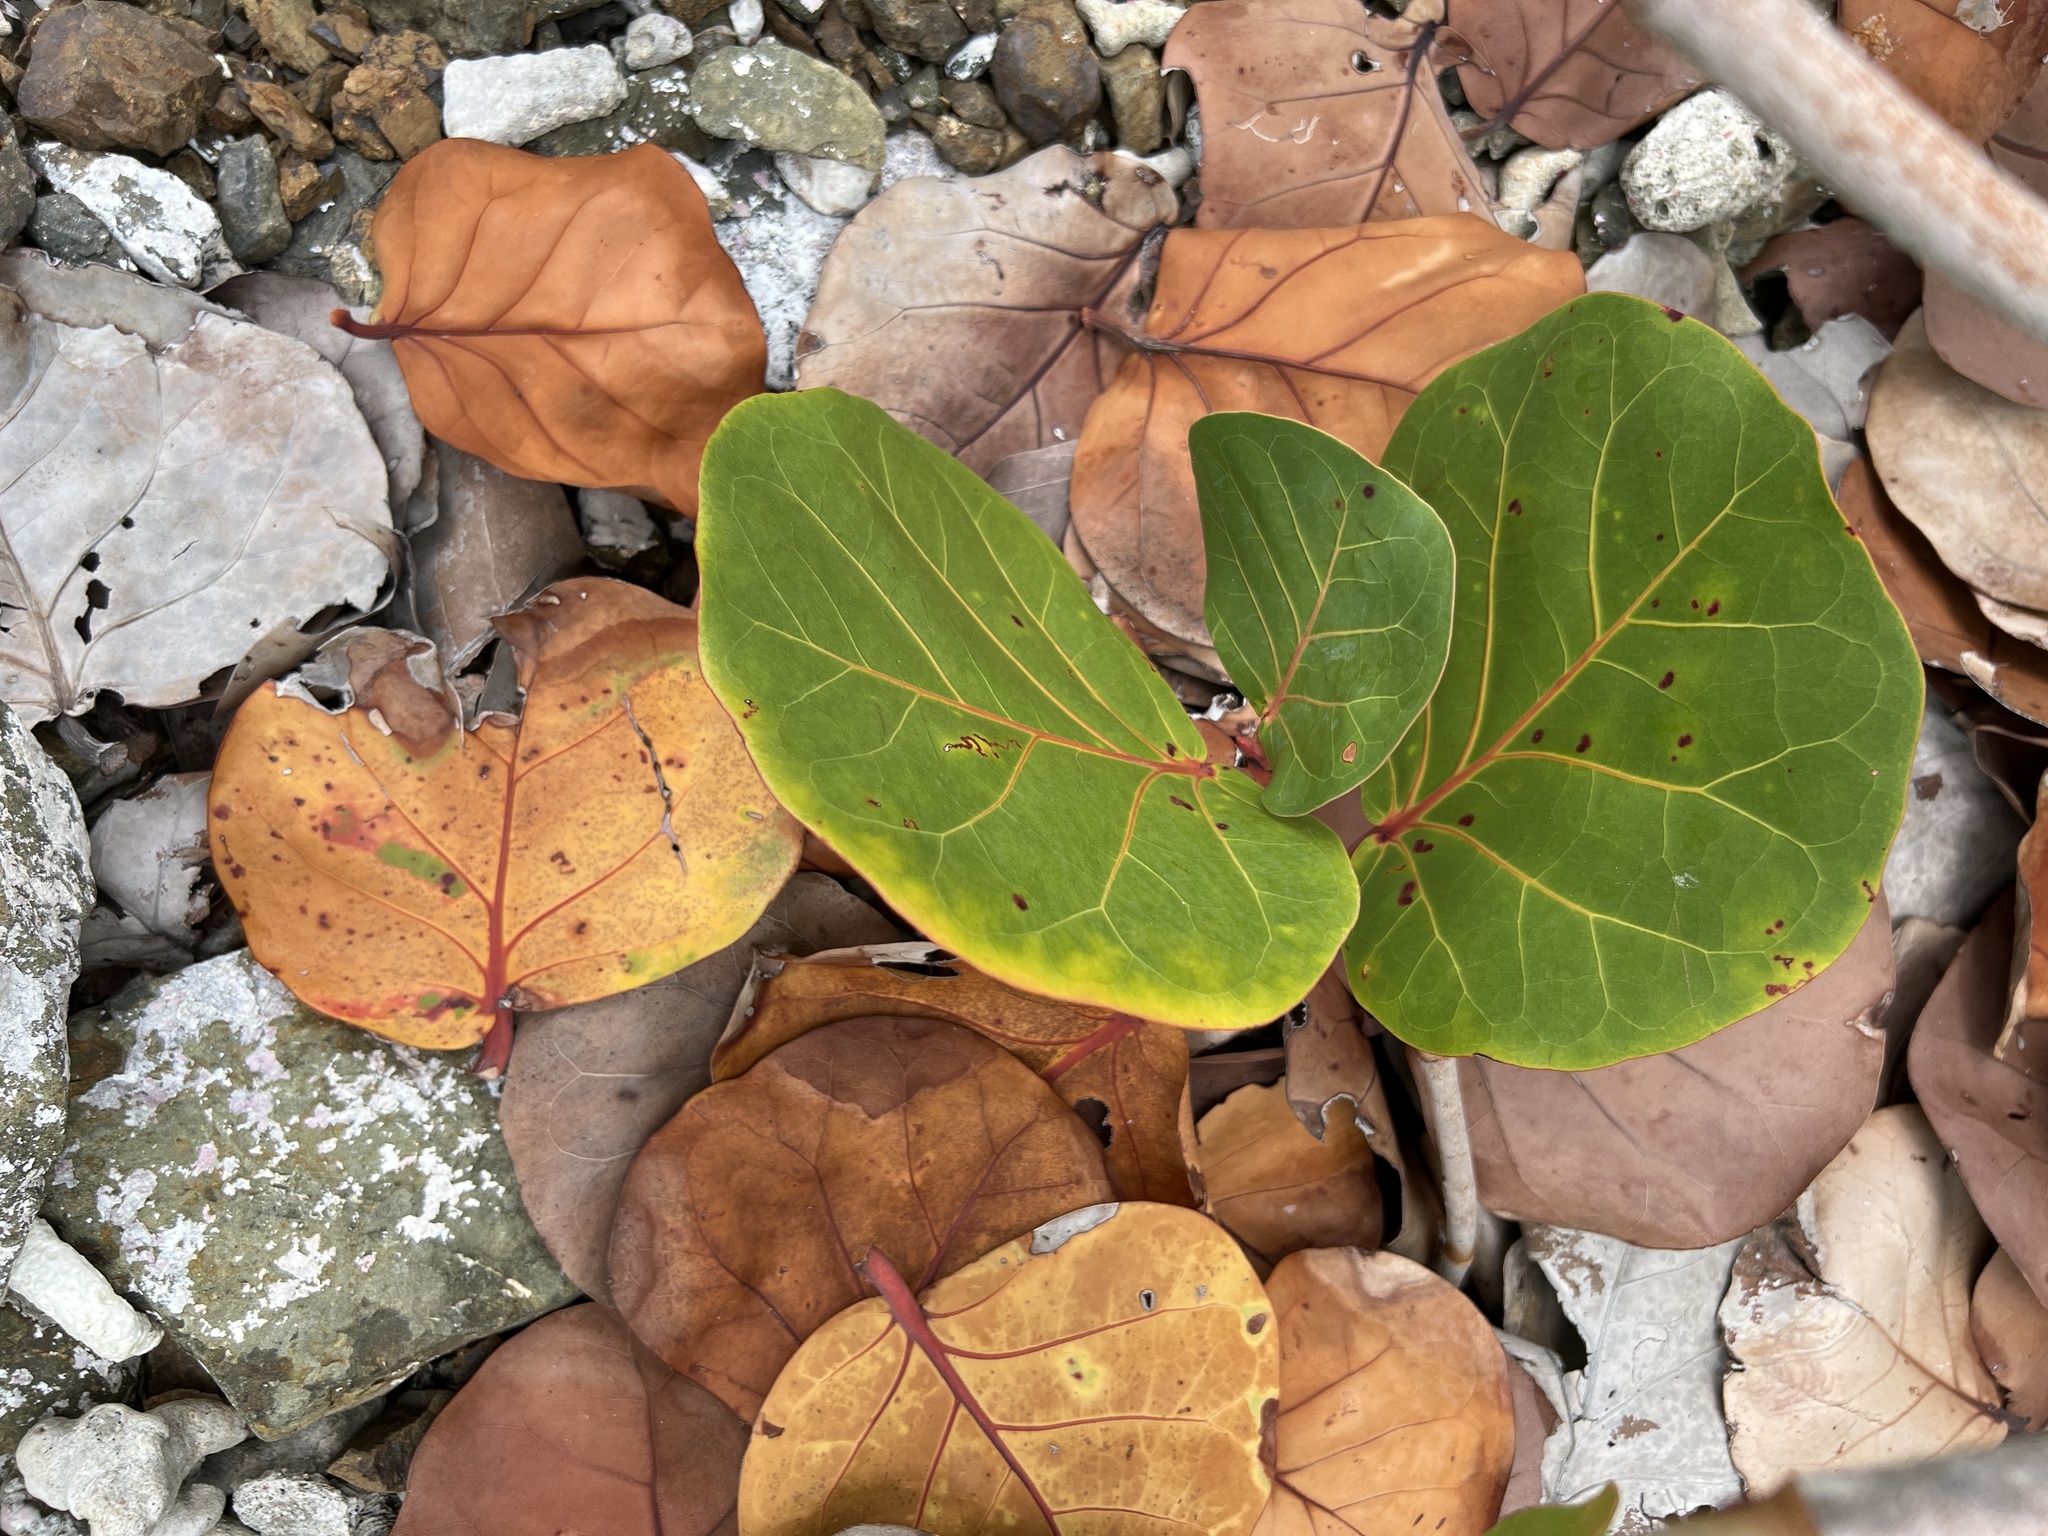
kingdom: Plantae
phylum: Tracheophyta
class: Magnoliopsida
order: Caryophyllales
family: Polygonaceae
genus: Coccoloba
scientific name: Coccoloba uvifera
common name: Seagrape
